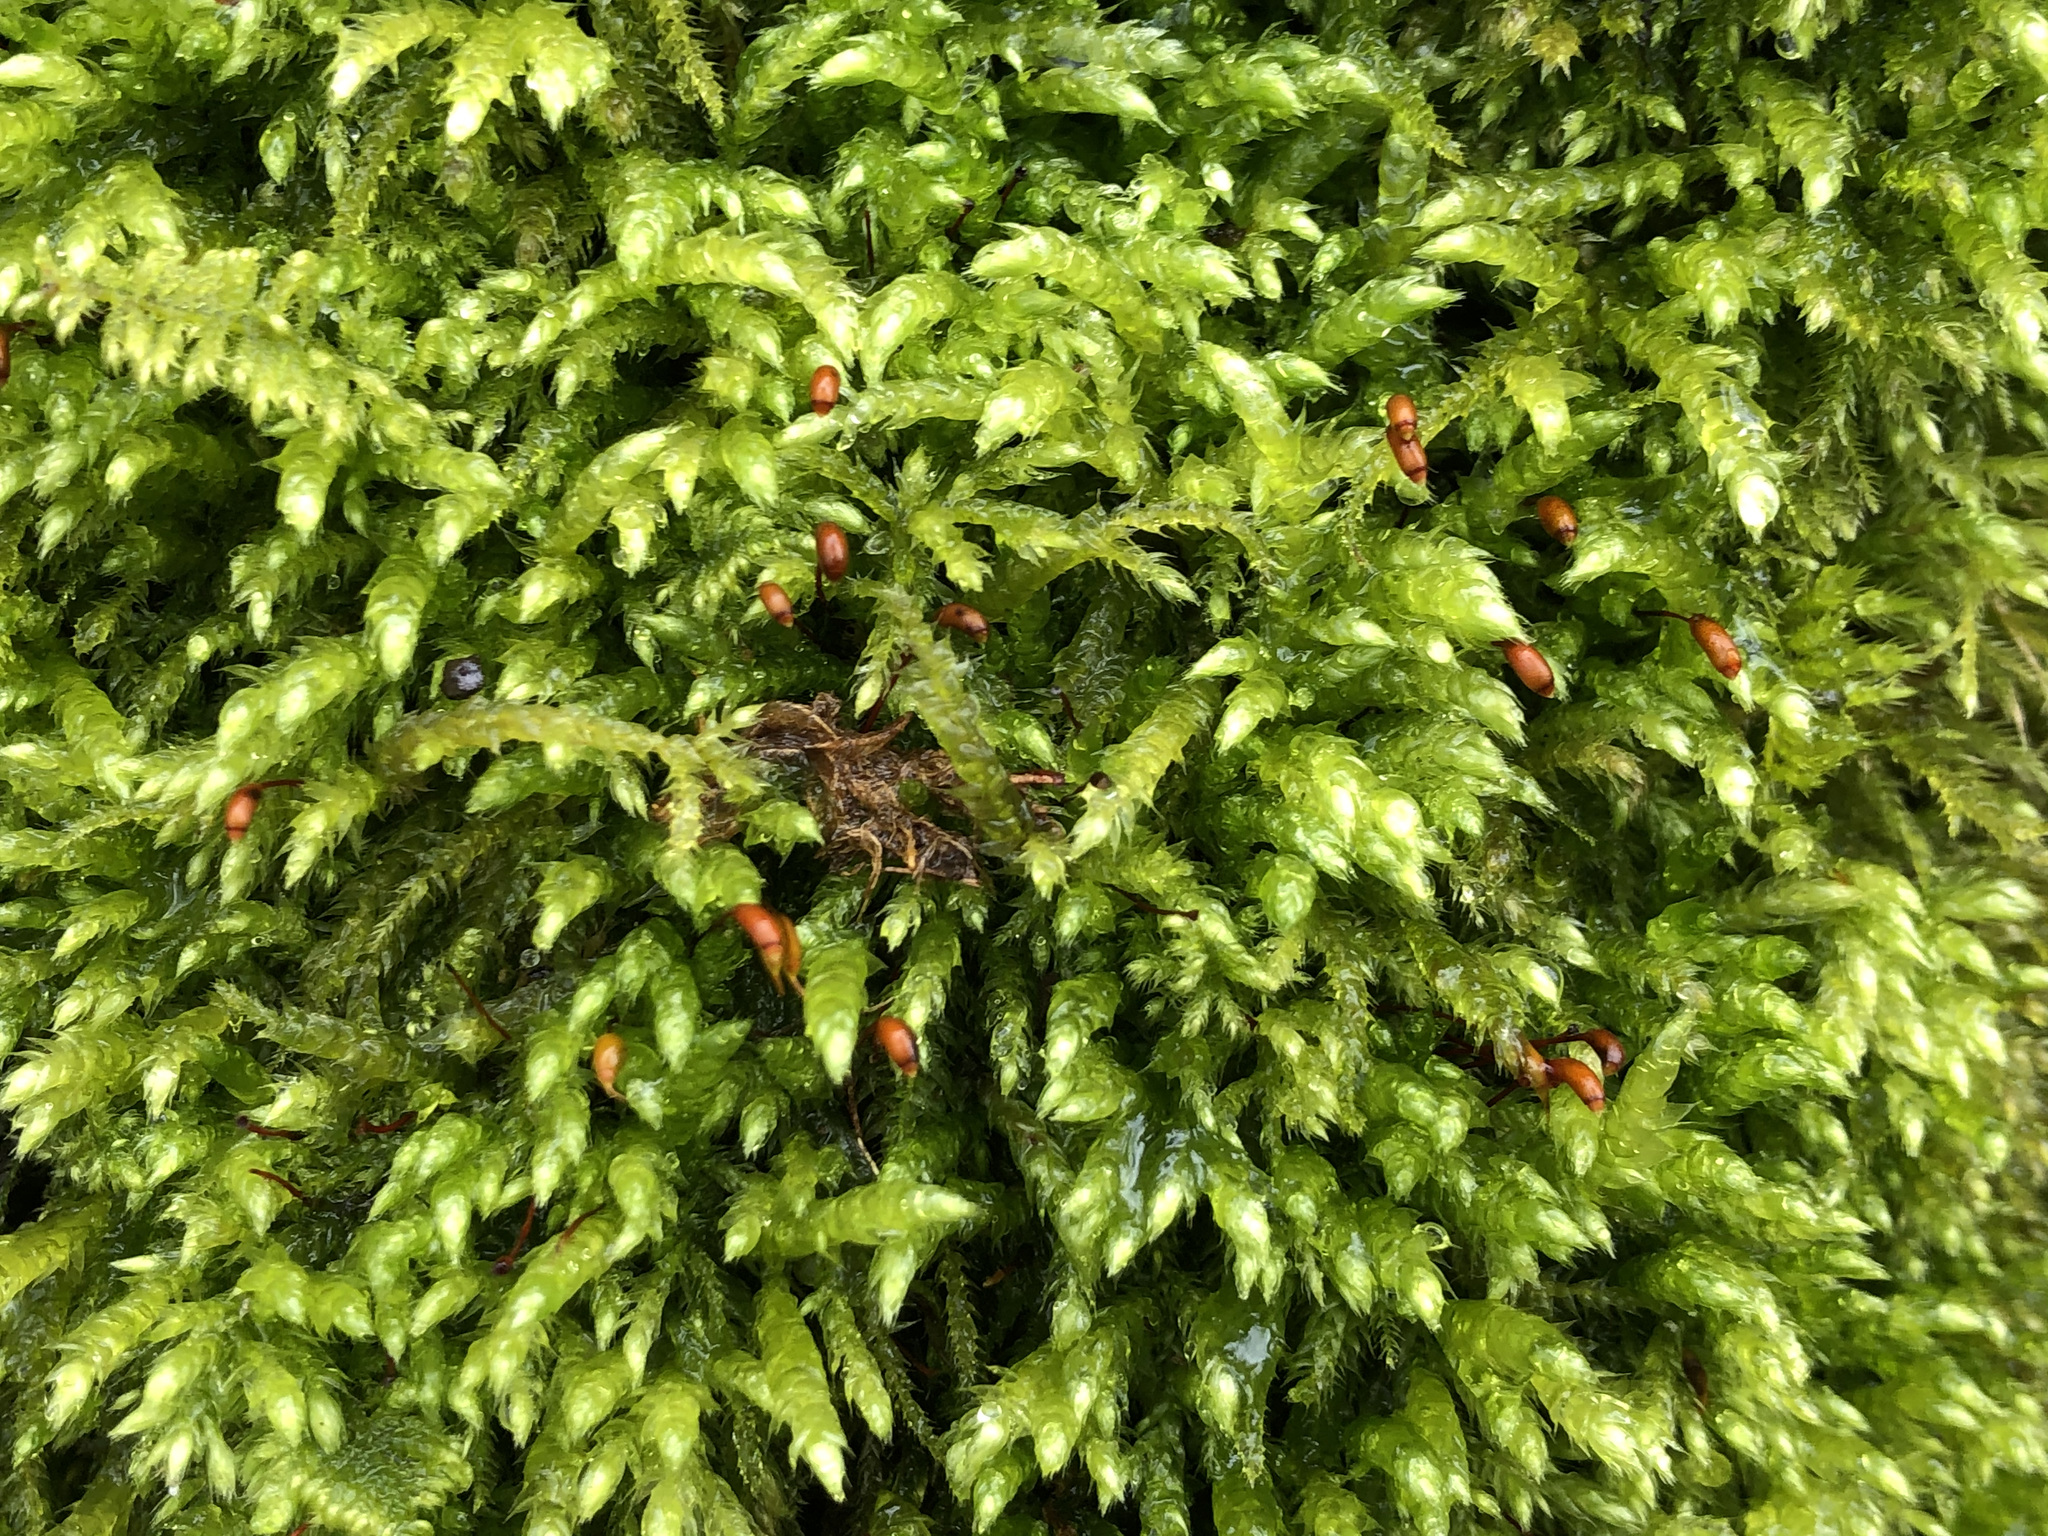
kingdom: Plantae
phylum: Bryophyta
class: Bryopsida
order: Hypnales
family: Brachytheciaceae
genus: Brachythecium
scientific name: Brachythecium rutabulum
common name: Rough-stalked feather-moss
